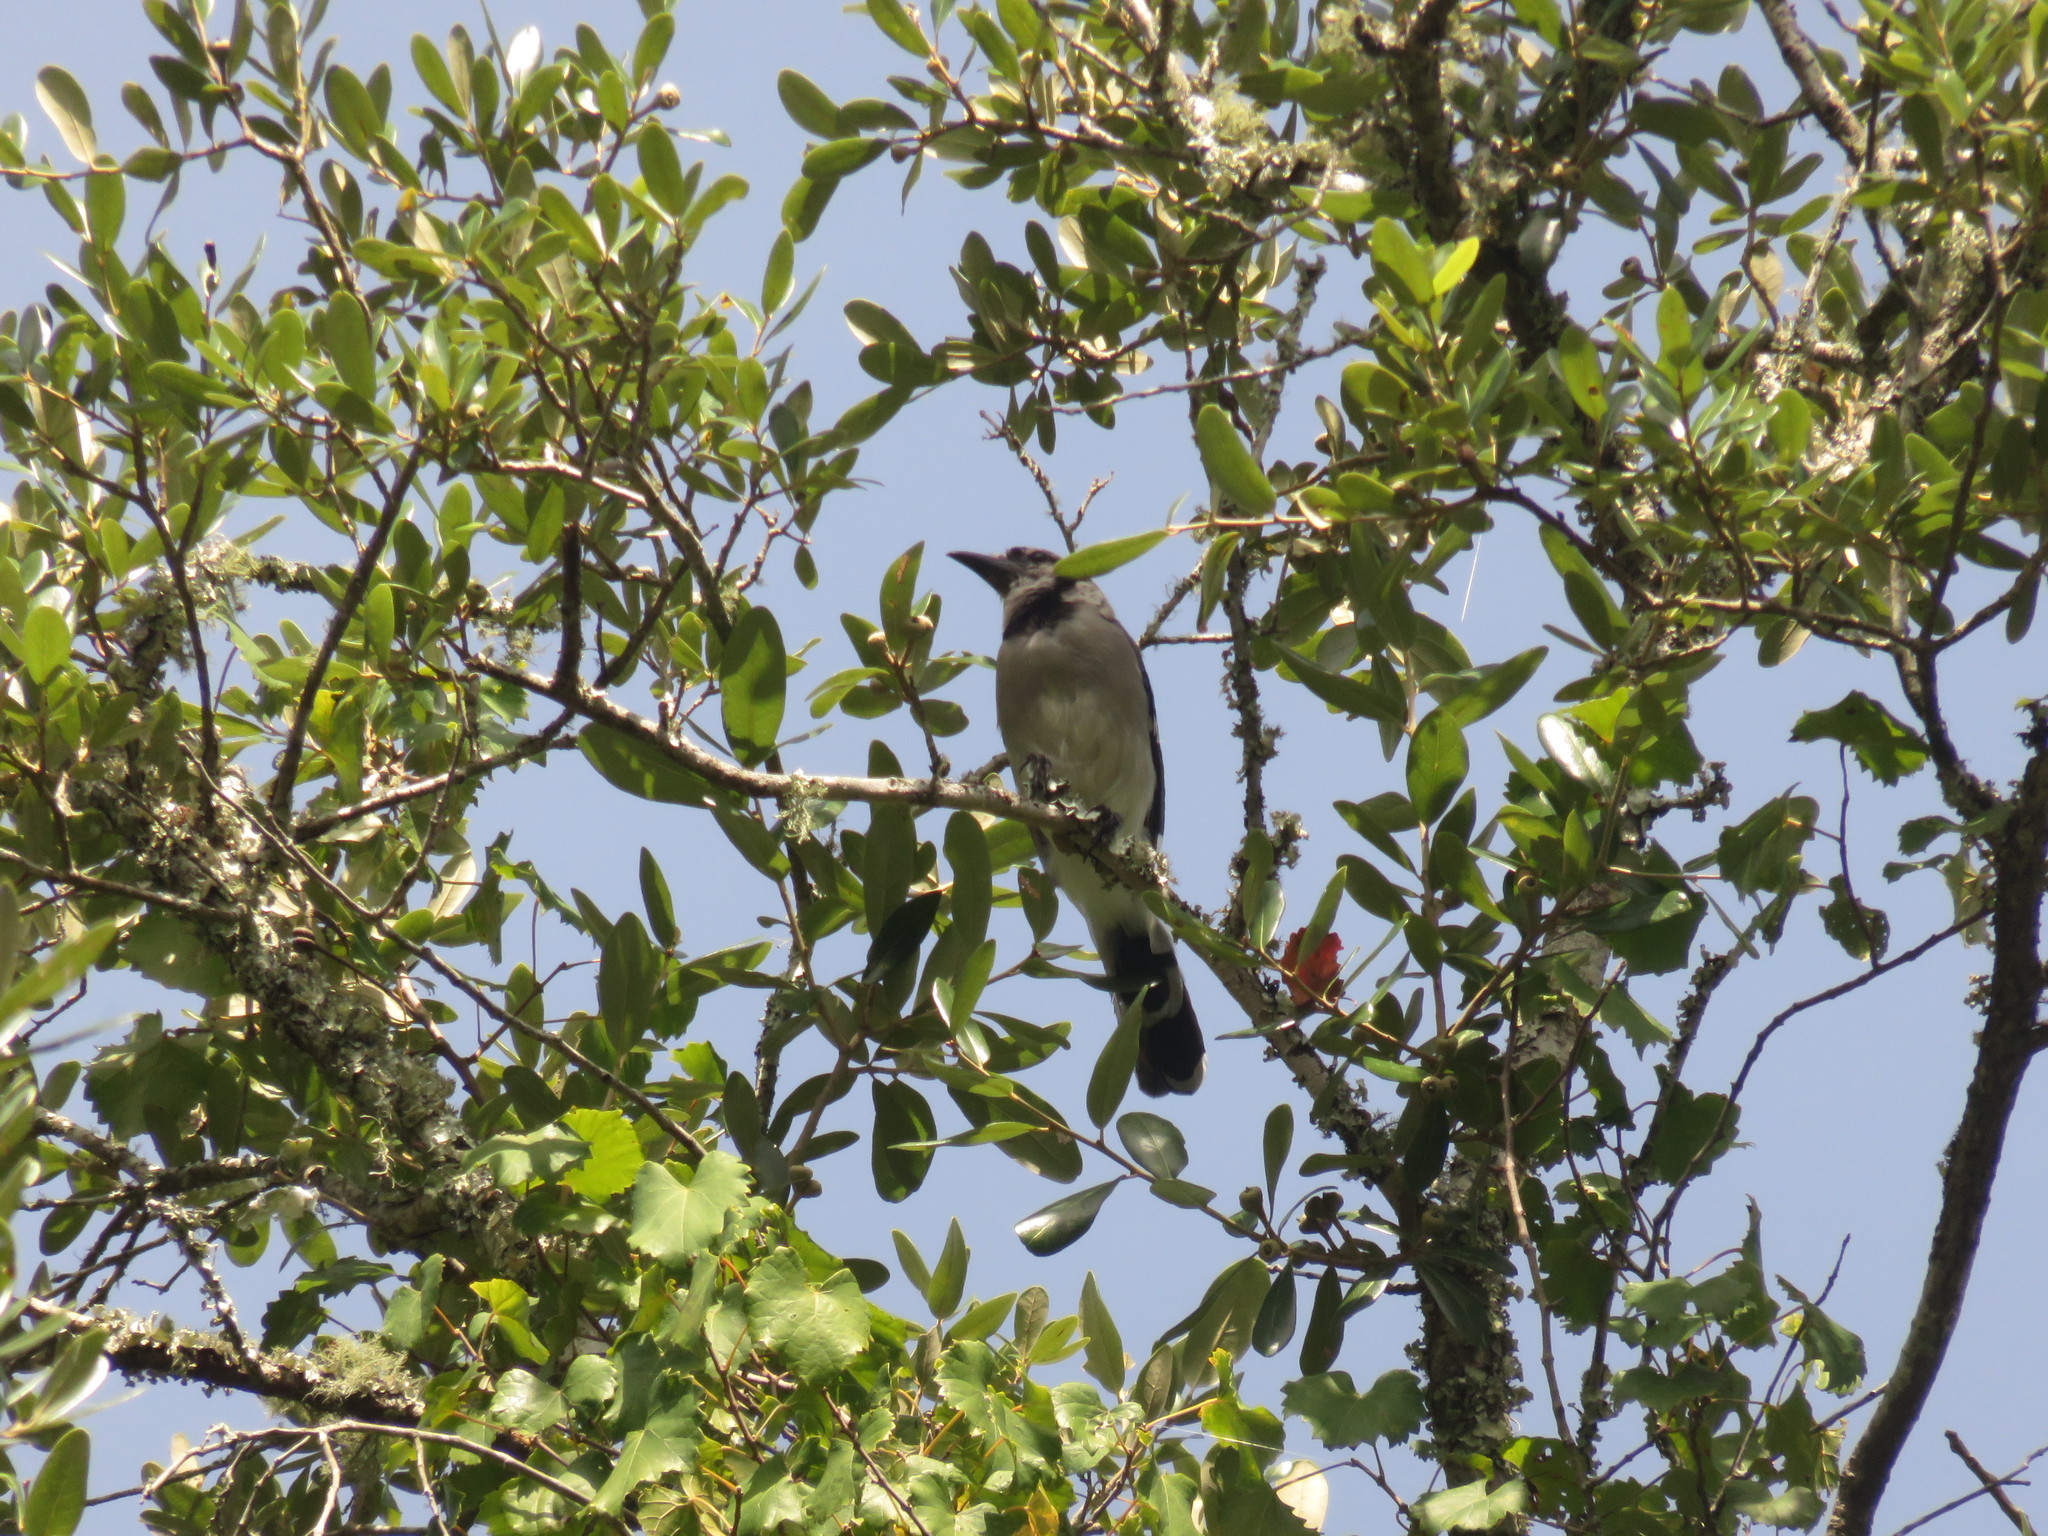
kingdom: Animalia
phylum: Chordata
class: Aves
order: Passeriformes
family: Corvidae
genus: Cyanocitta
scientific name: Cyanocitta cristata
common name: Blue jay
